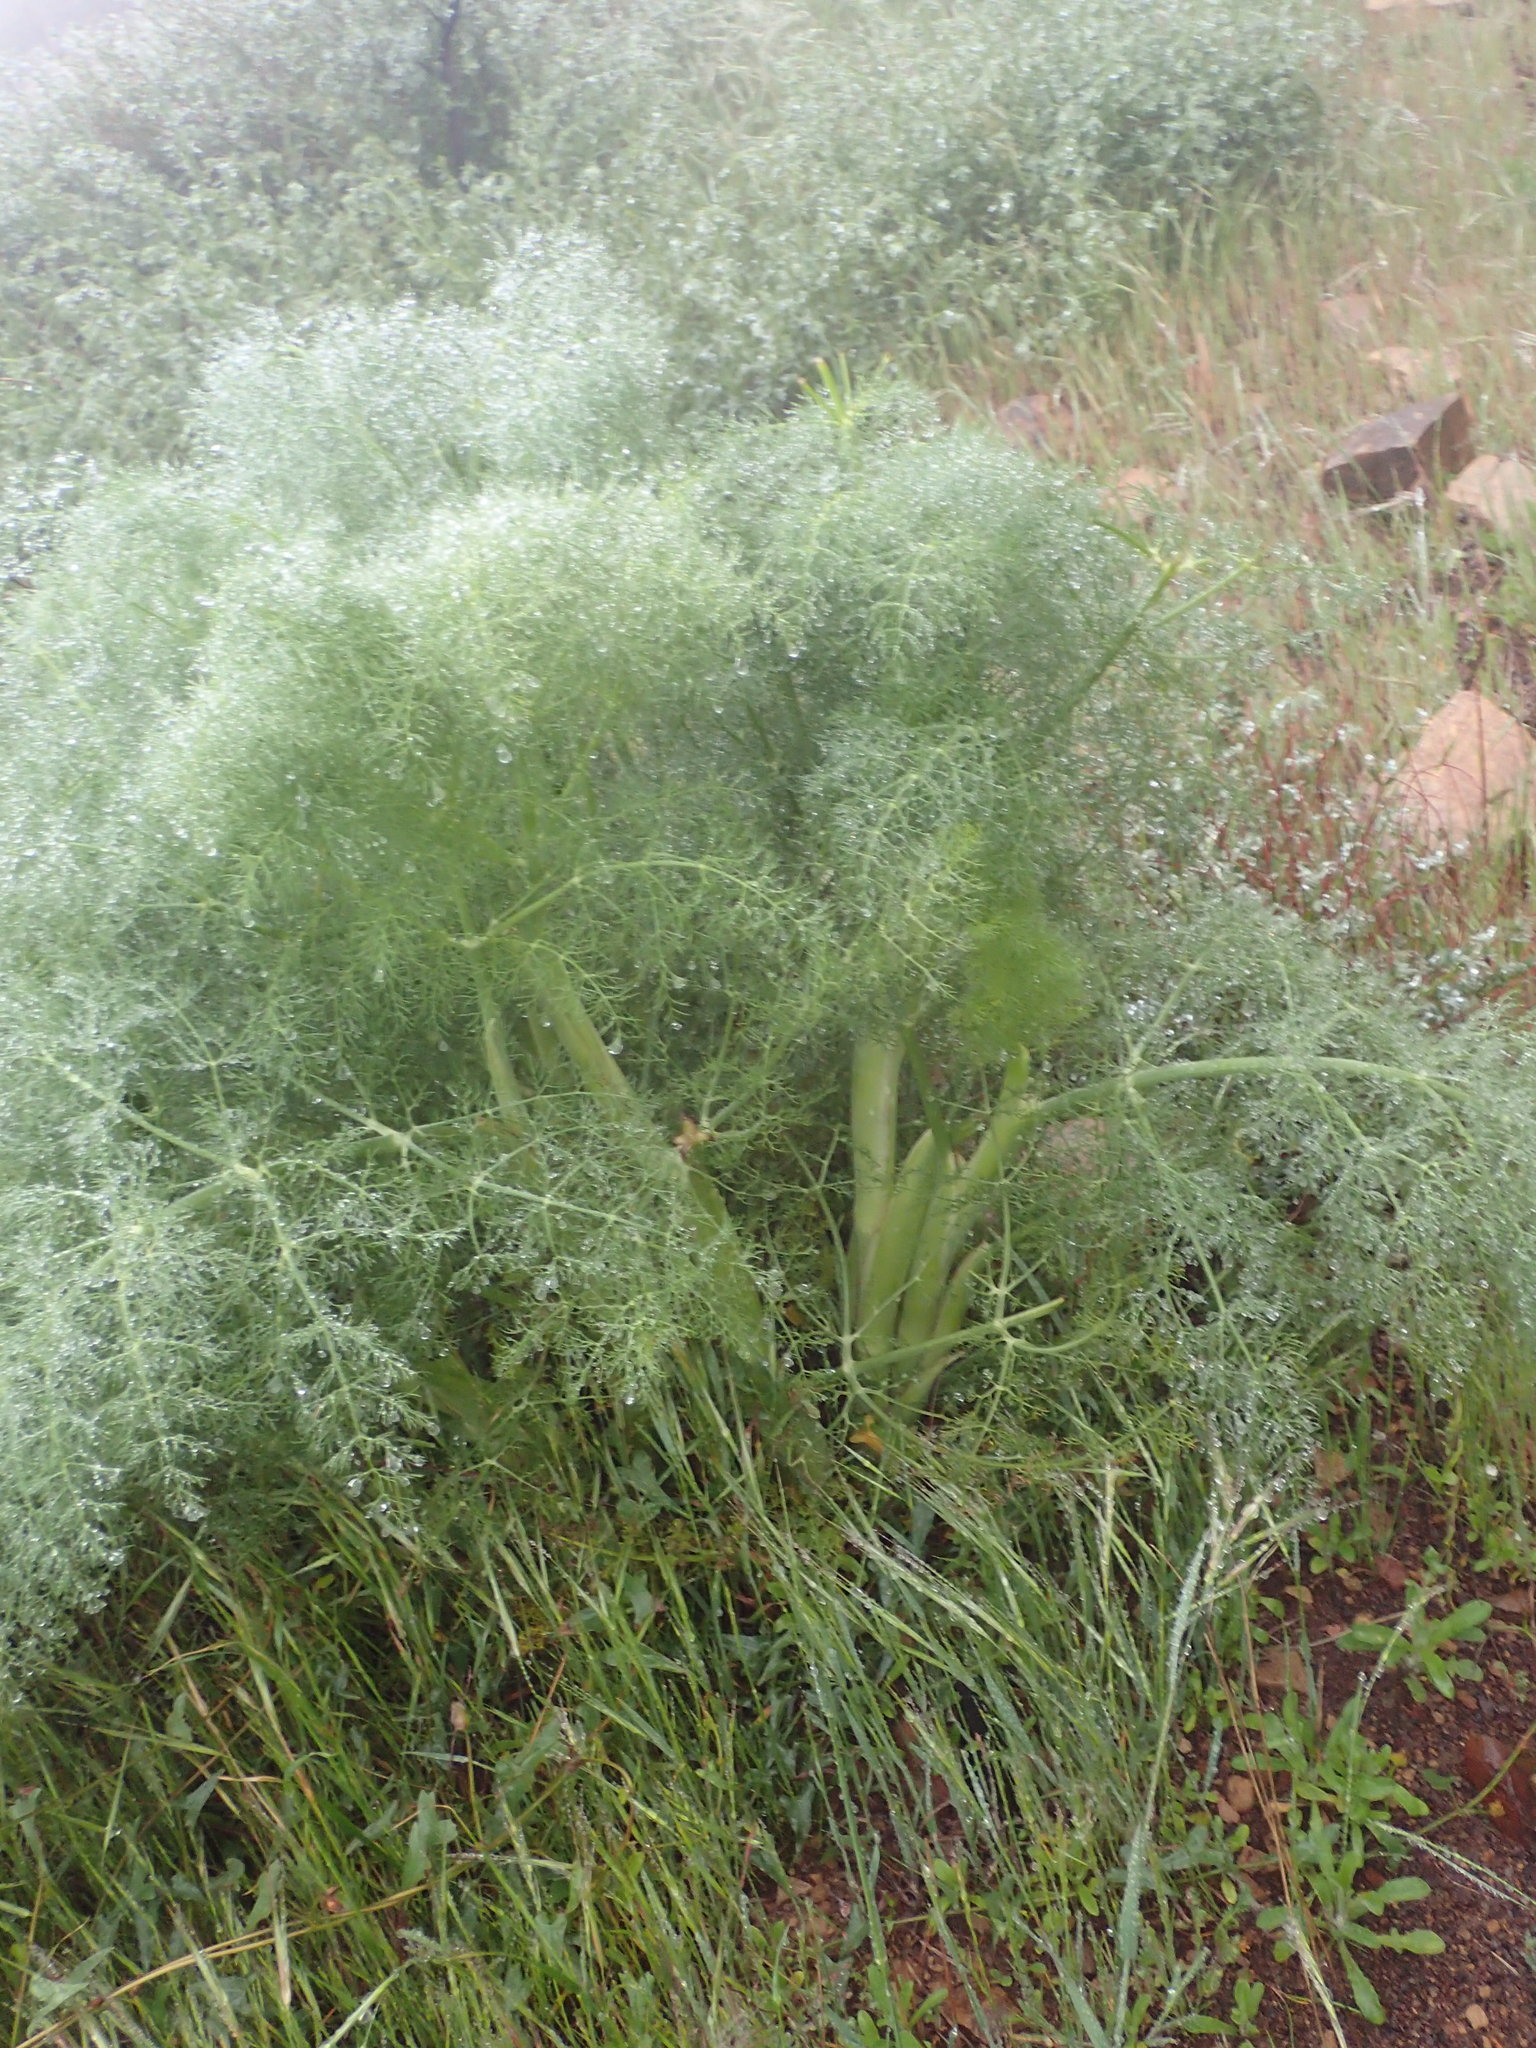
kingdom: Plantae
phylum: Tracheophyta
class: Magnoliopsida
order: Apiales
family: Apiaceae
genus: Foeniculum
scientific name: Foeniculum vulgare
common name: Fennel
